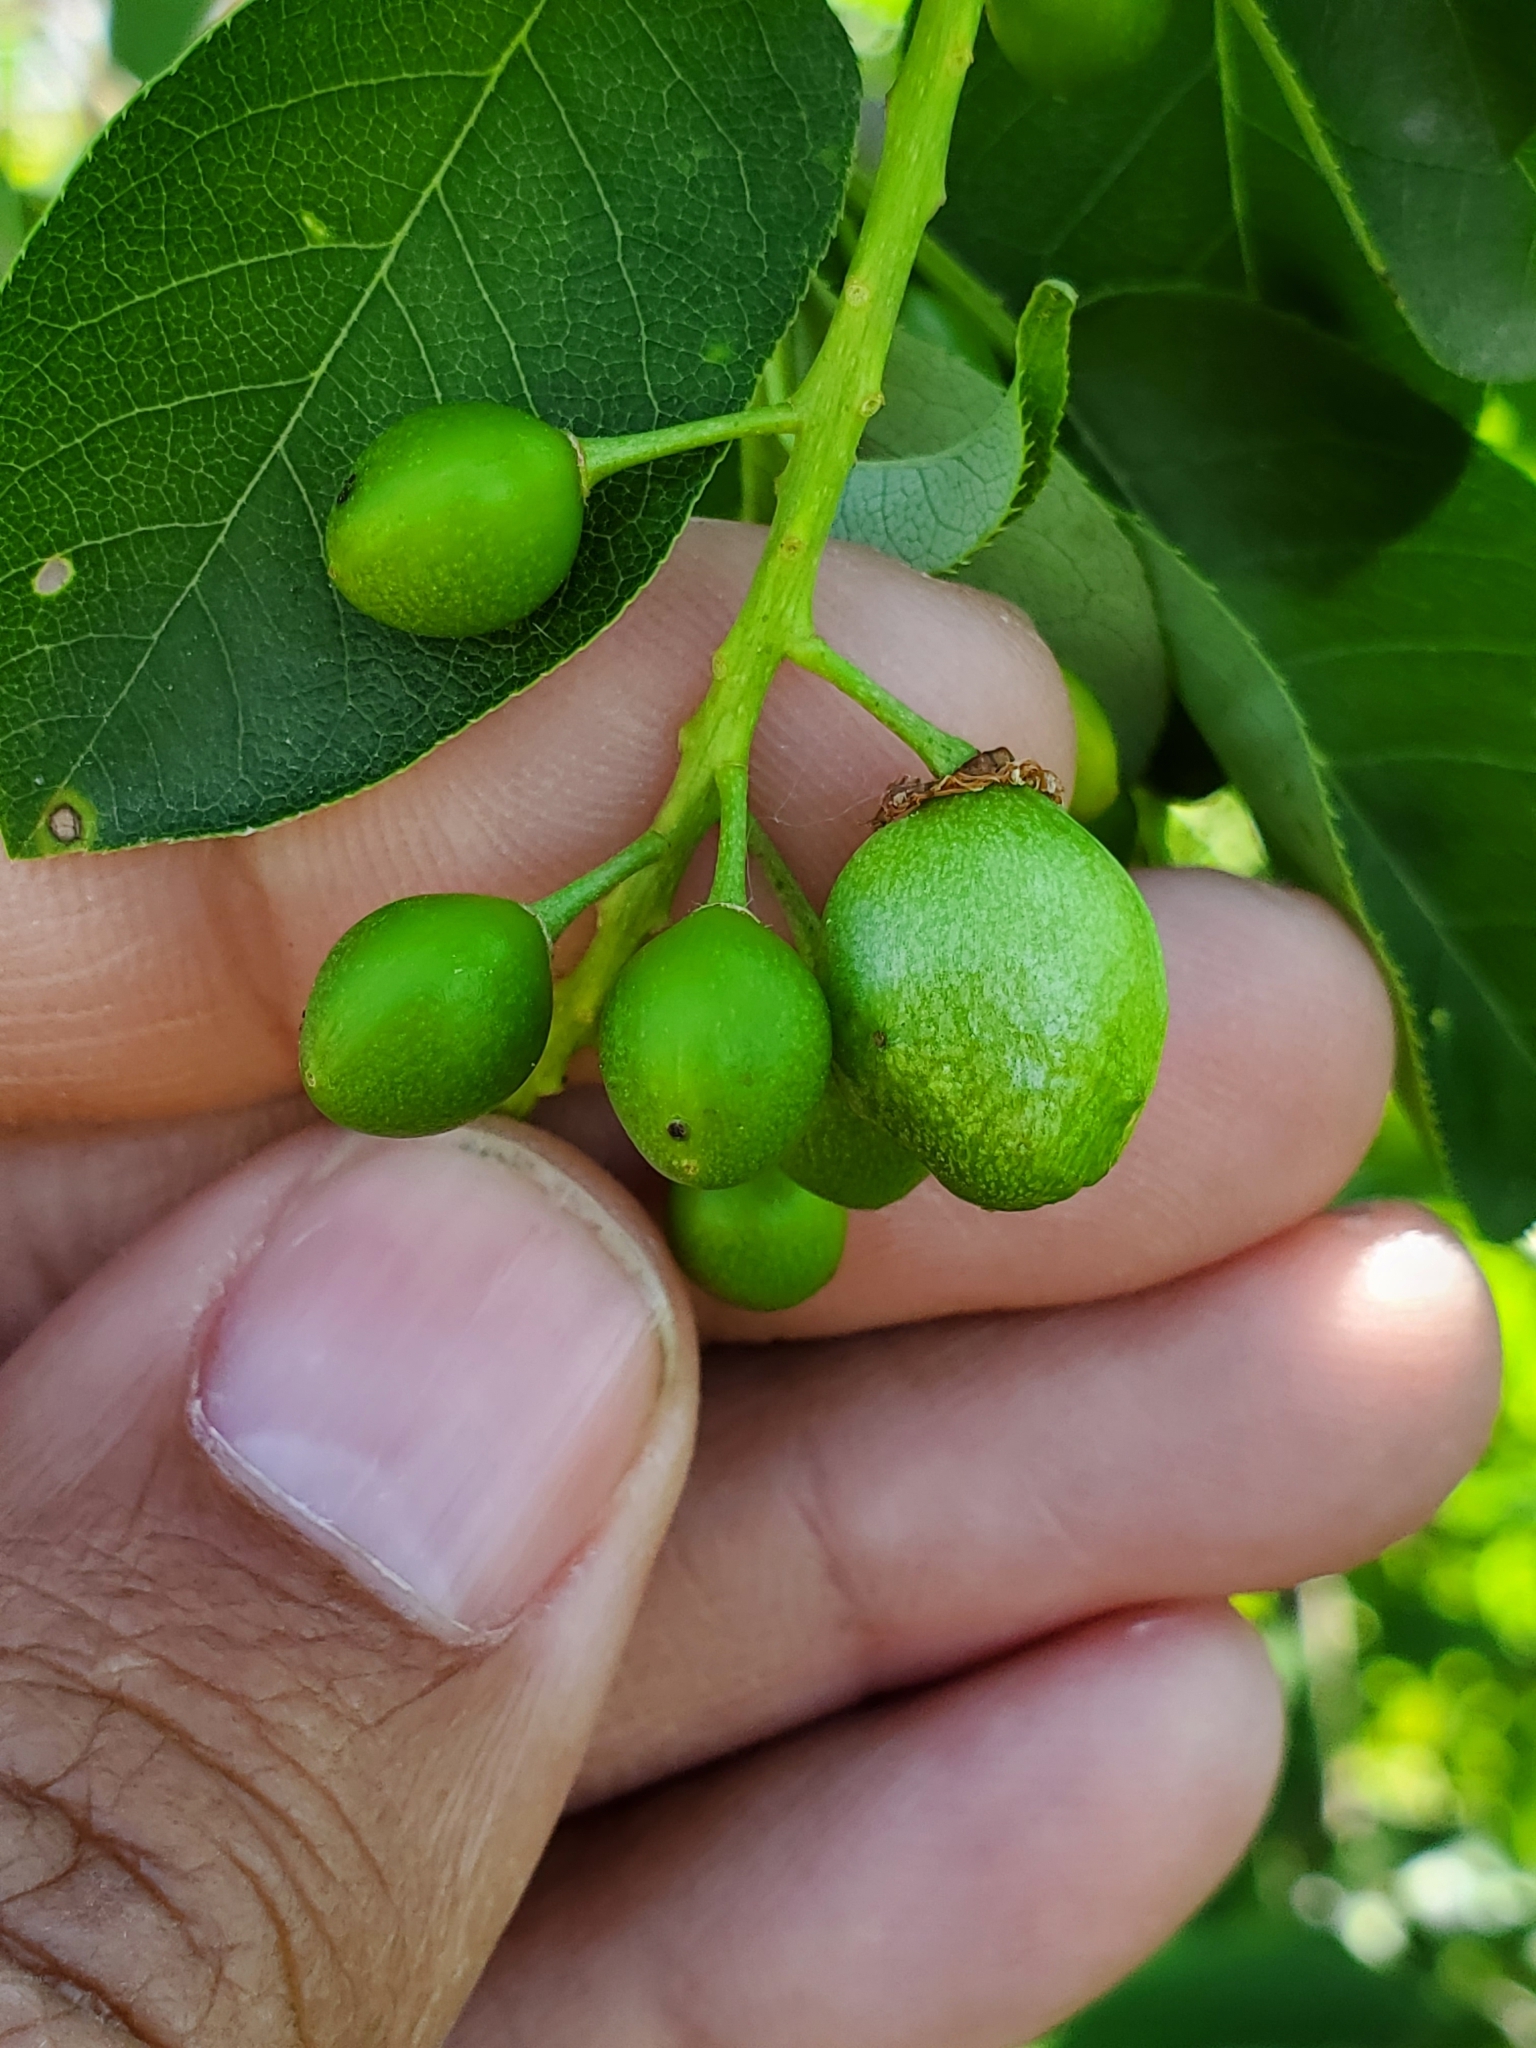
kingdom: Animalia
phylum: Arthropoda
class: Insecta
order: Diptera
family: Cecidomyiidae
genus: Contarinia
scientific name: Contarinia virginianiae
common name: Chokecherry midge
